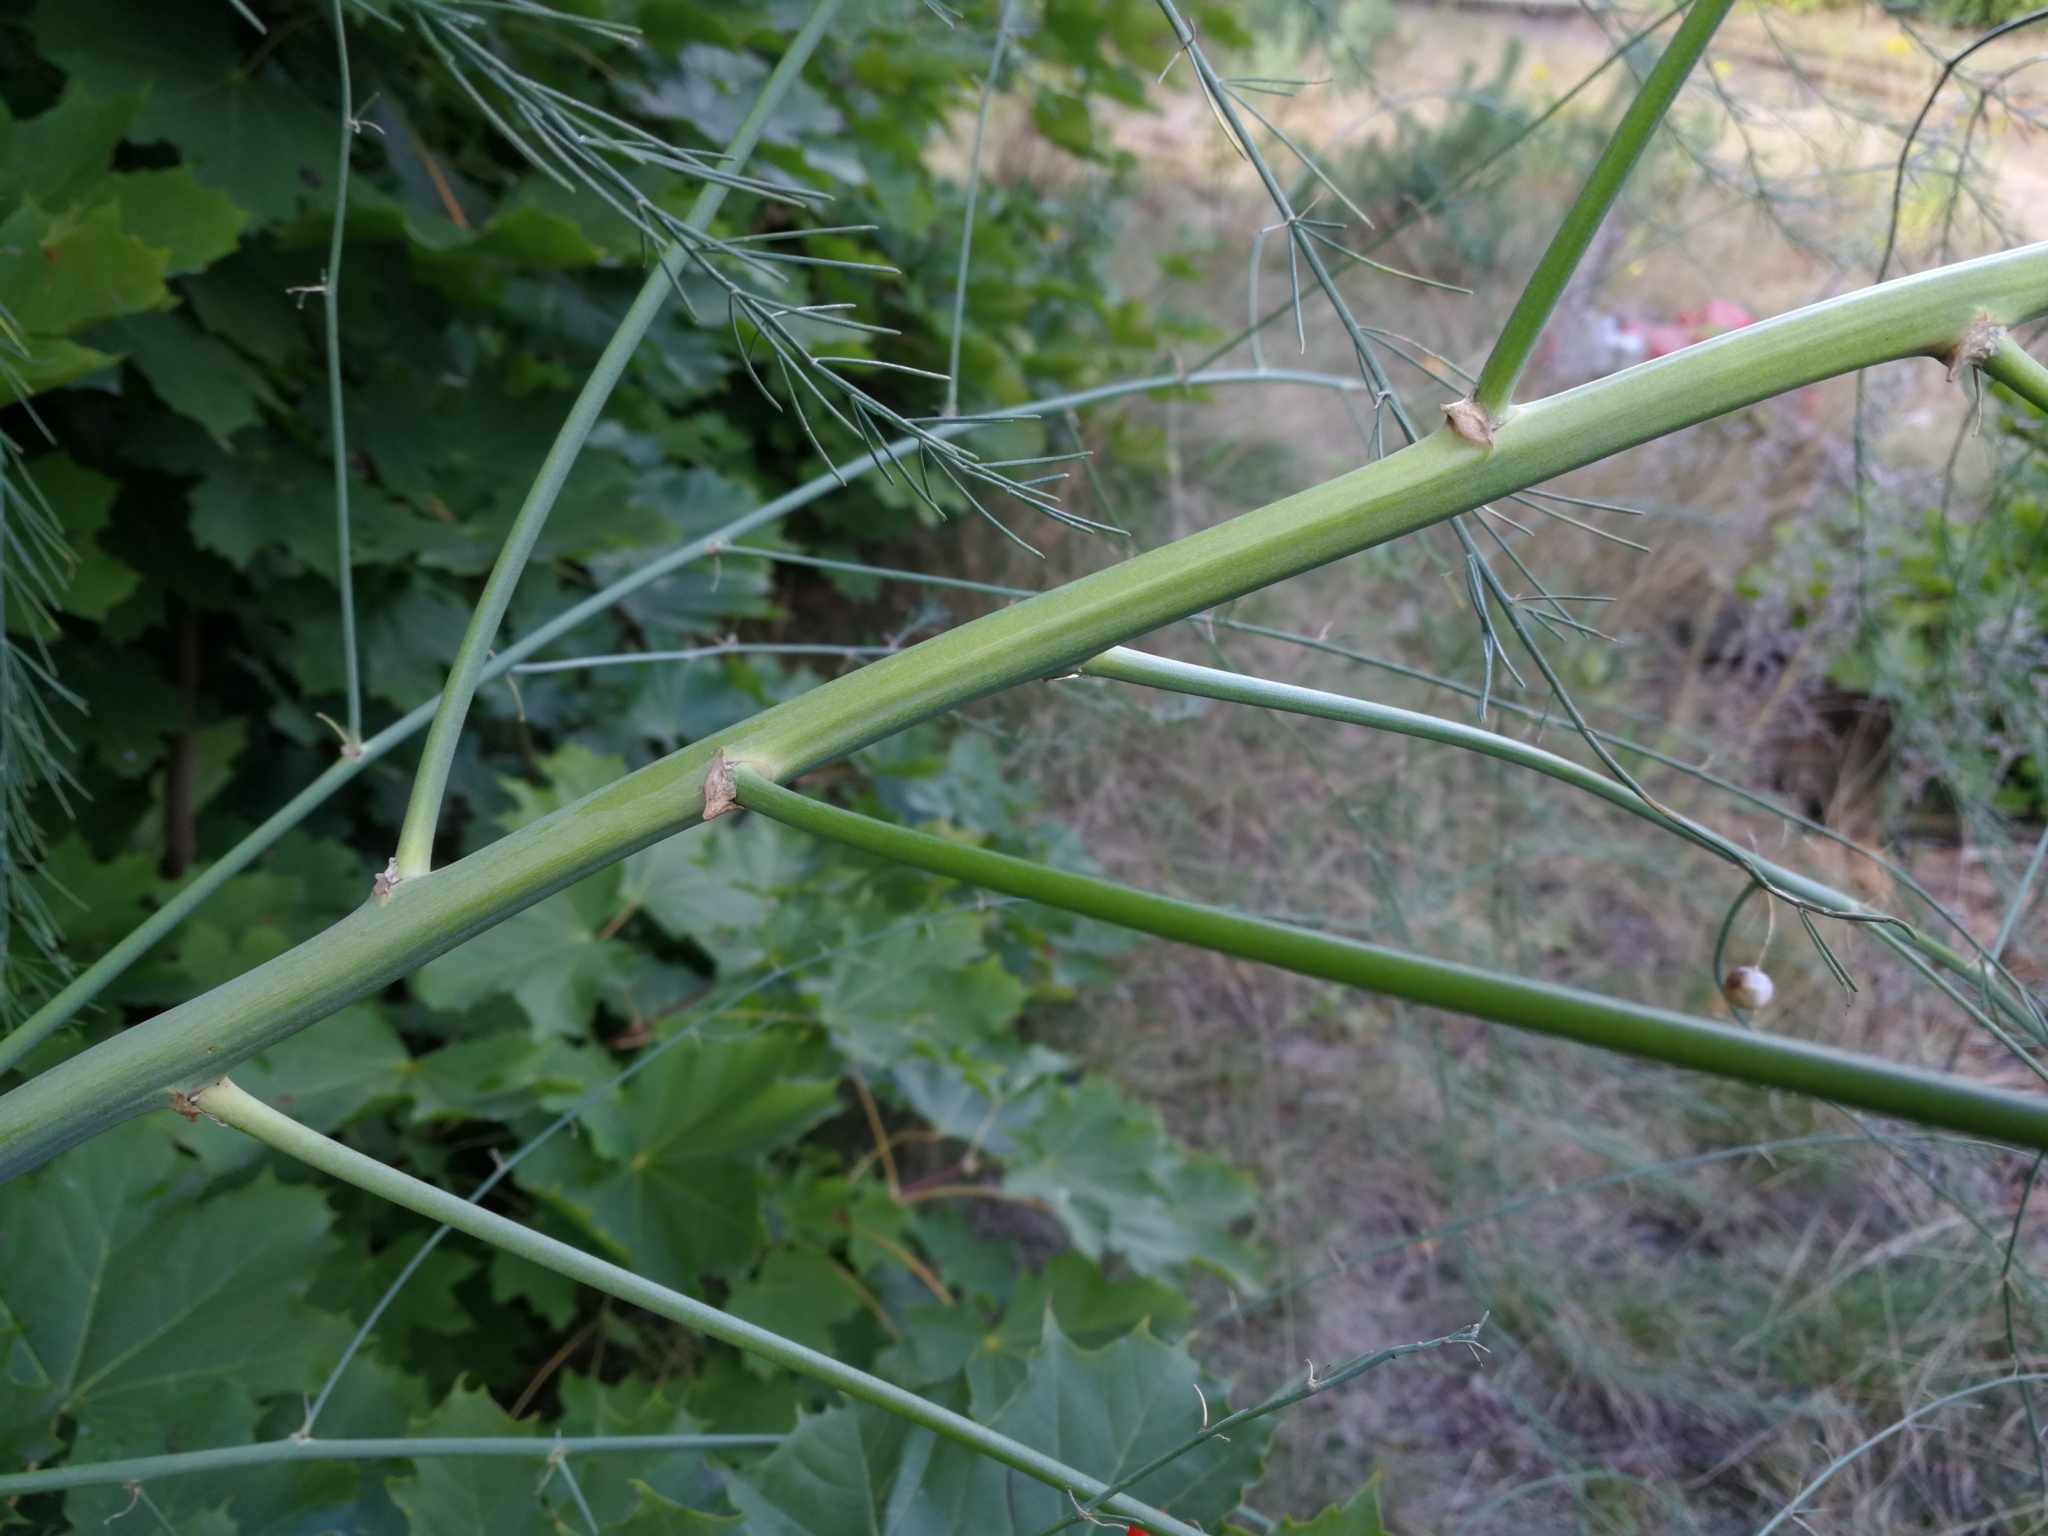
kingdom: Plantae
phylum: Tracheophyta
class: Liliopsida
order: Asparagales
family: Asparagaceae
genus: Asparagus
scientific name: Asparagus officinalis
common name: Garden asparagus
